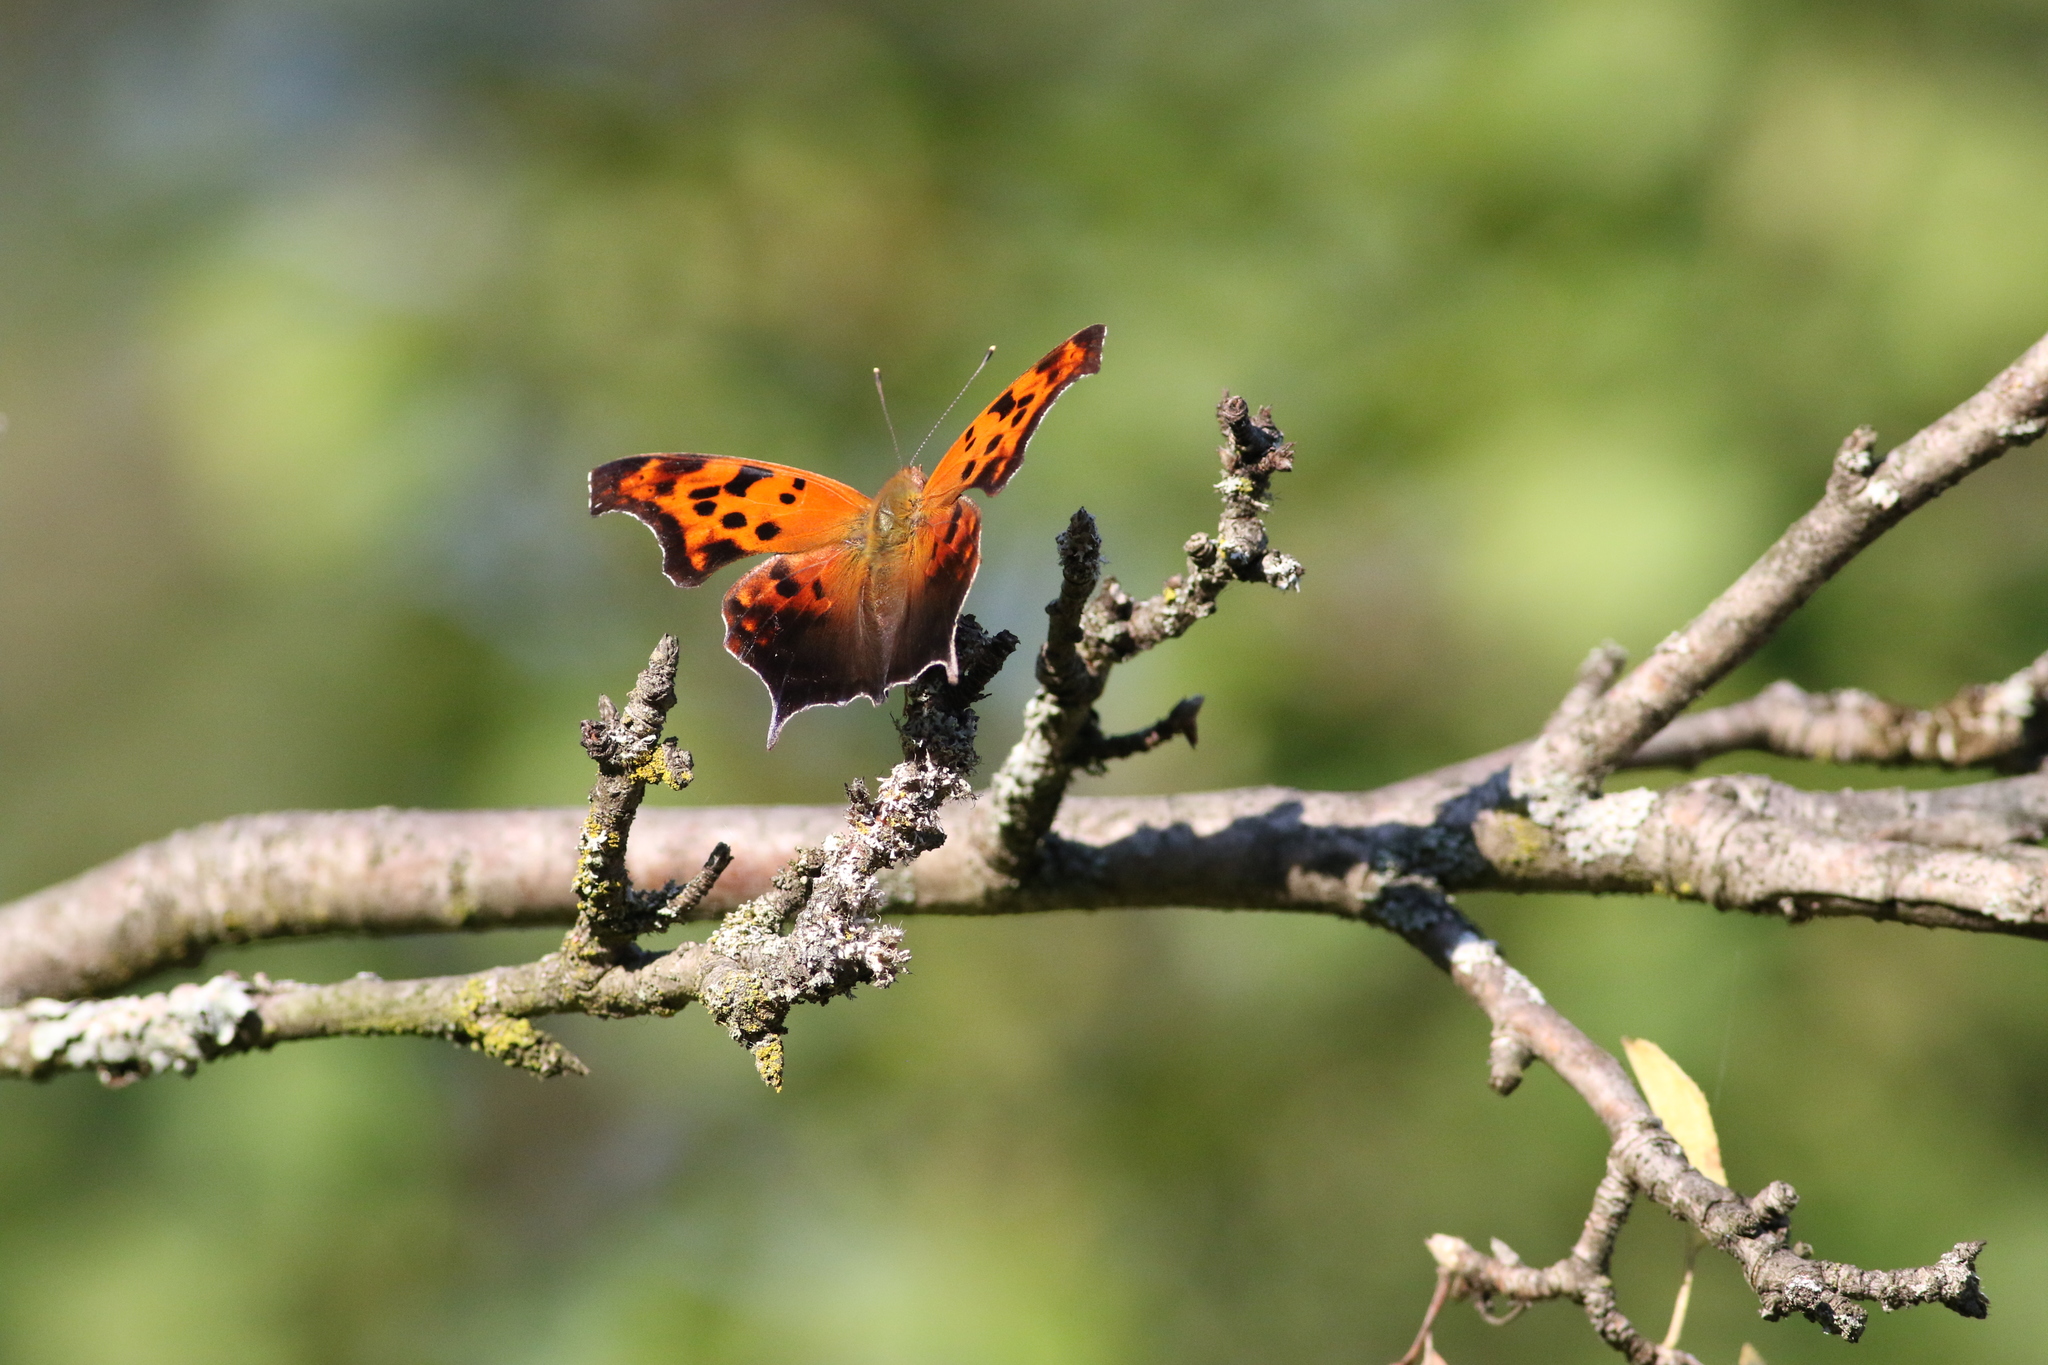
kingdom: Animalia
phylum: Arthropoda
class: Insecta
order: Lepidoptera
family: Nymphalidae
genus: Polygonia
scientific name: Polygonia interrogationis
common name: Question mark
